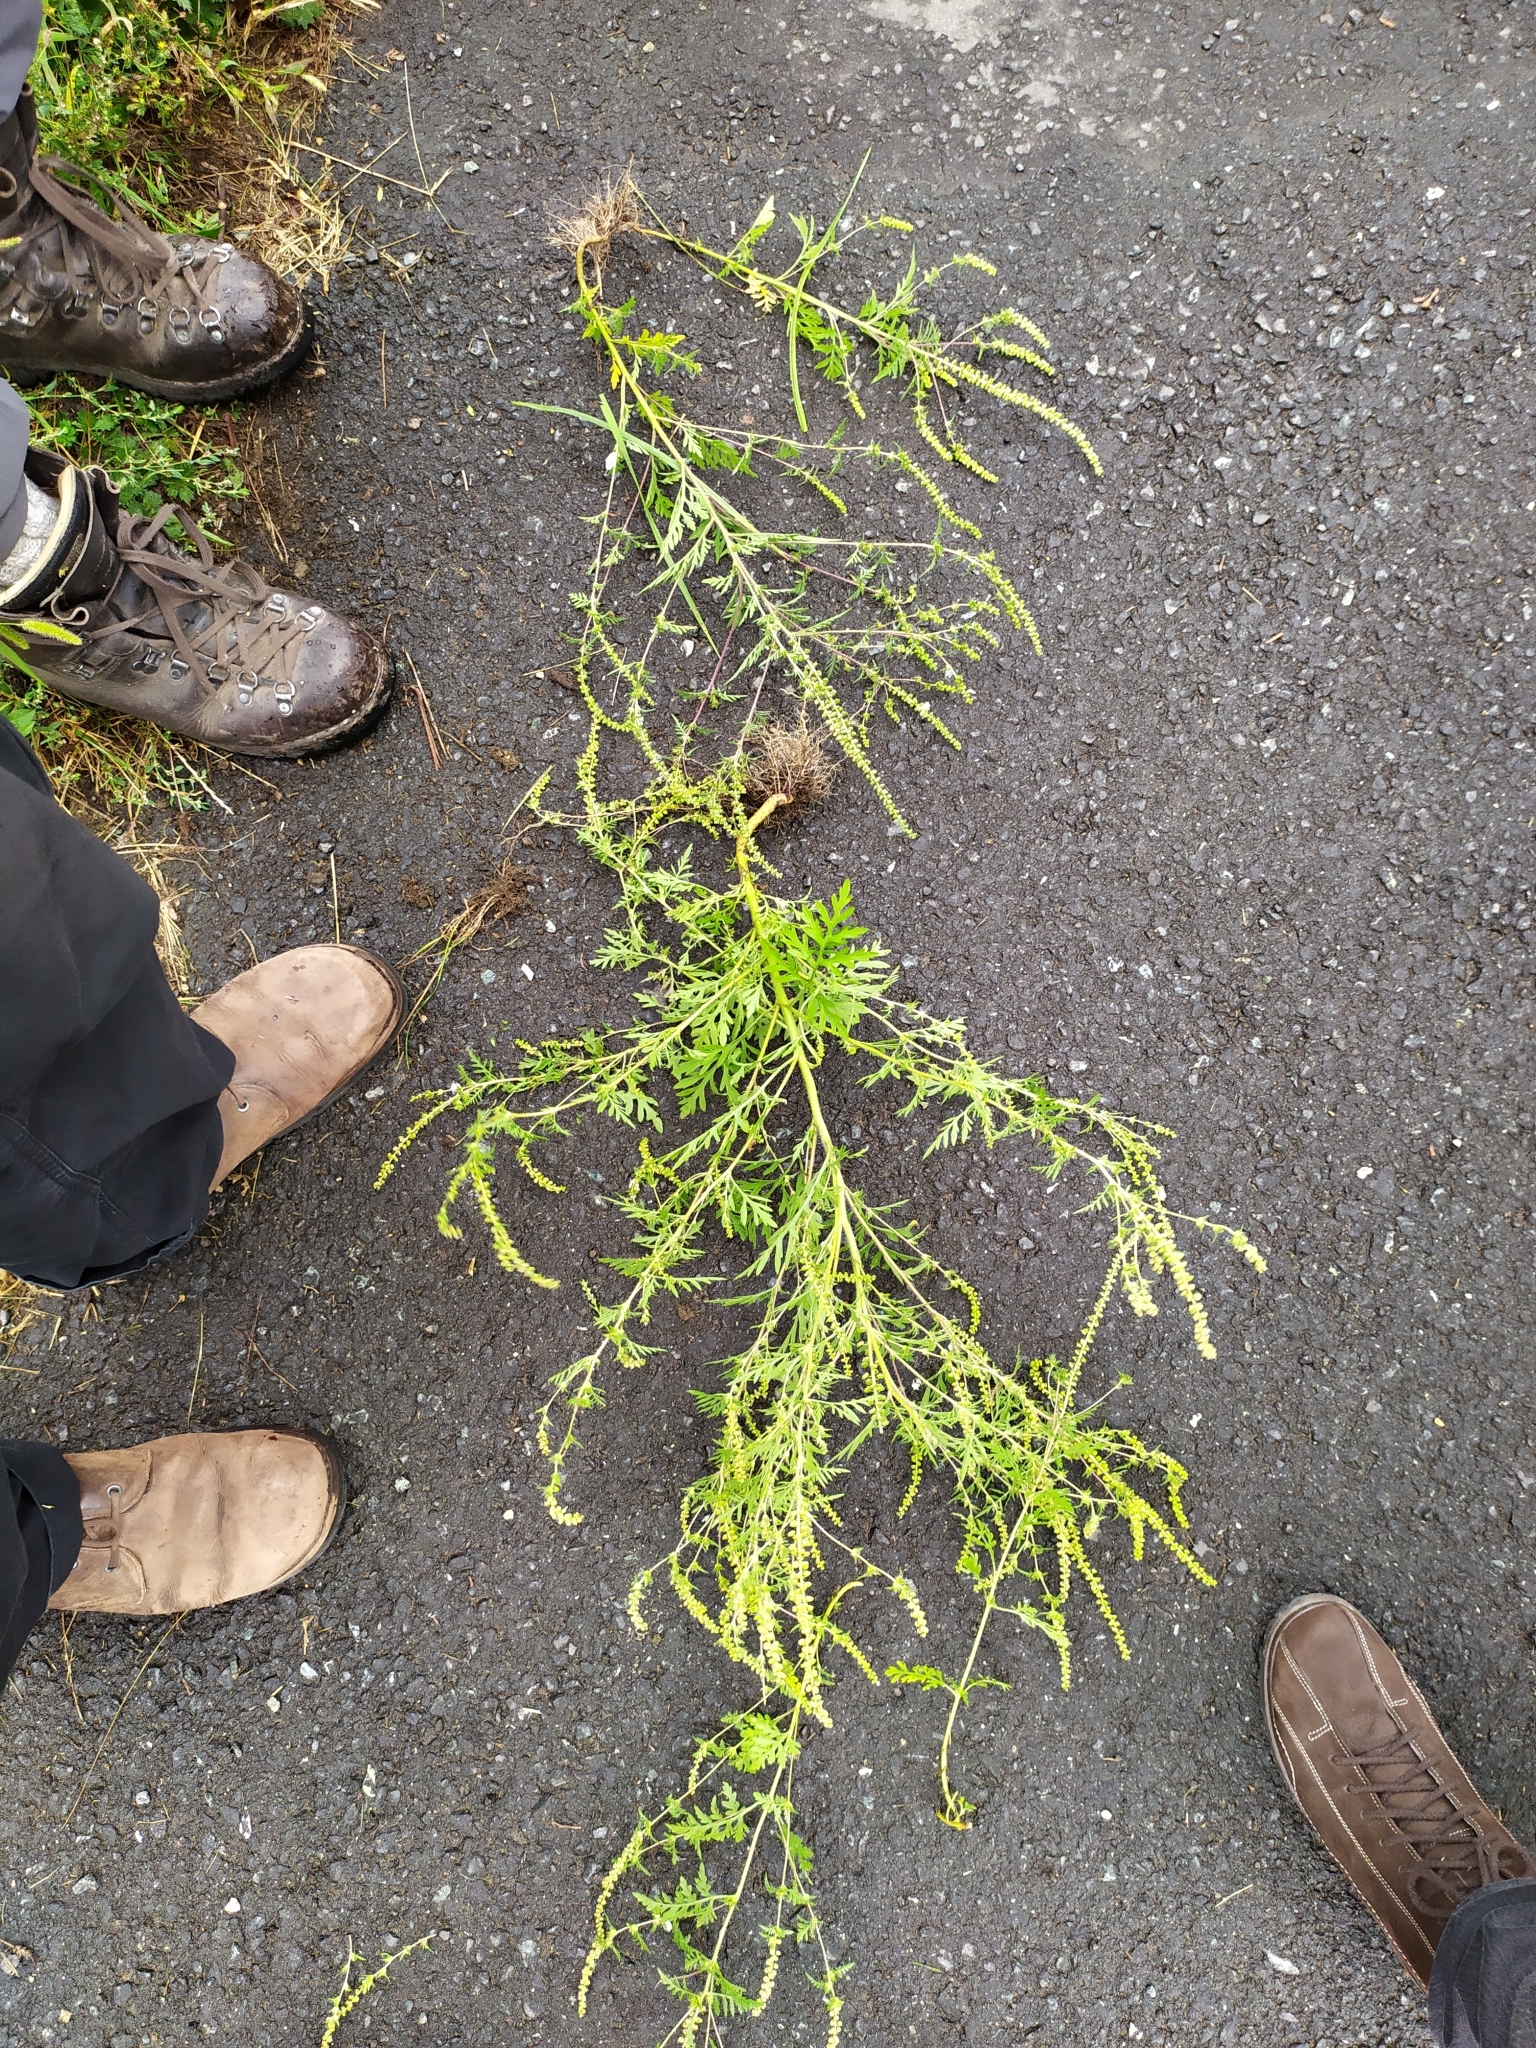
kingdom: Plantae
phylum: Tracheophyta
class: Magnoliopsida
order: Asterales
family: Asteraceae
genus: Ambrosia
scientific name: Ambrosia artemisiifolia
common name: Annual ragweed
